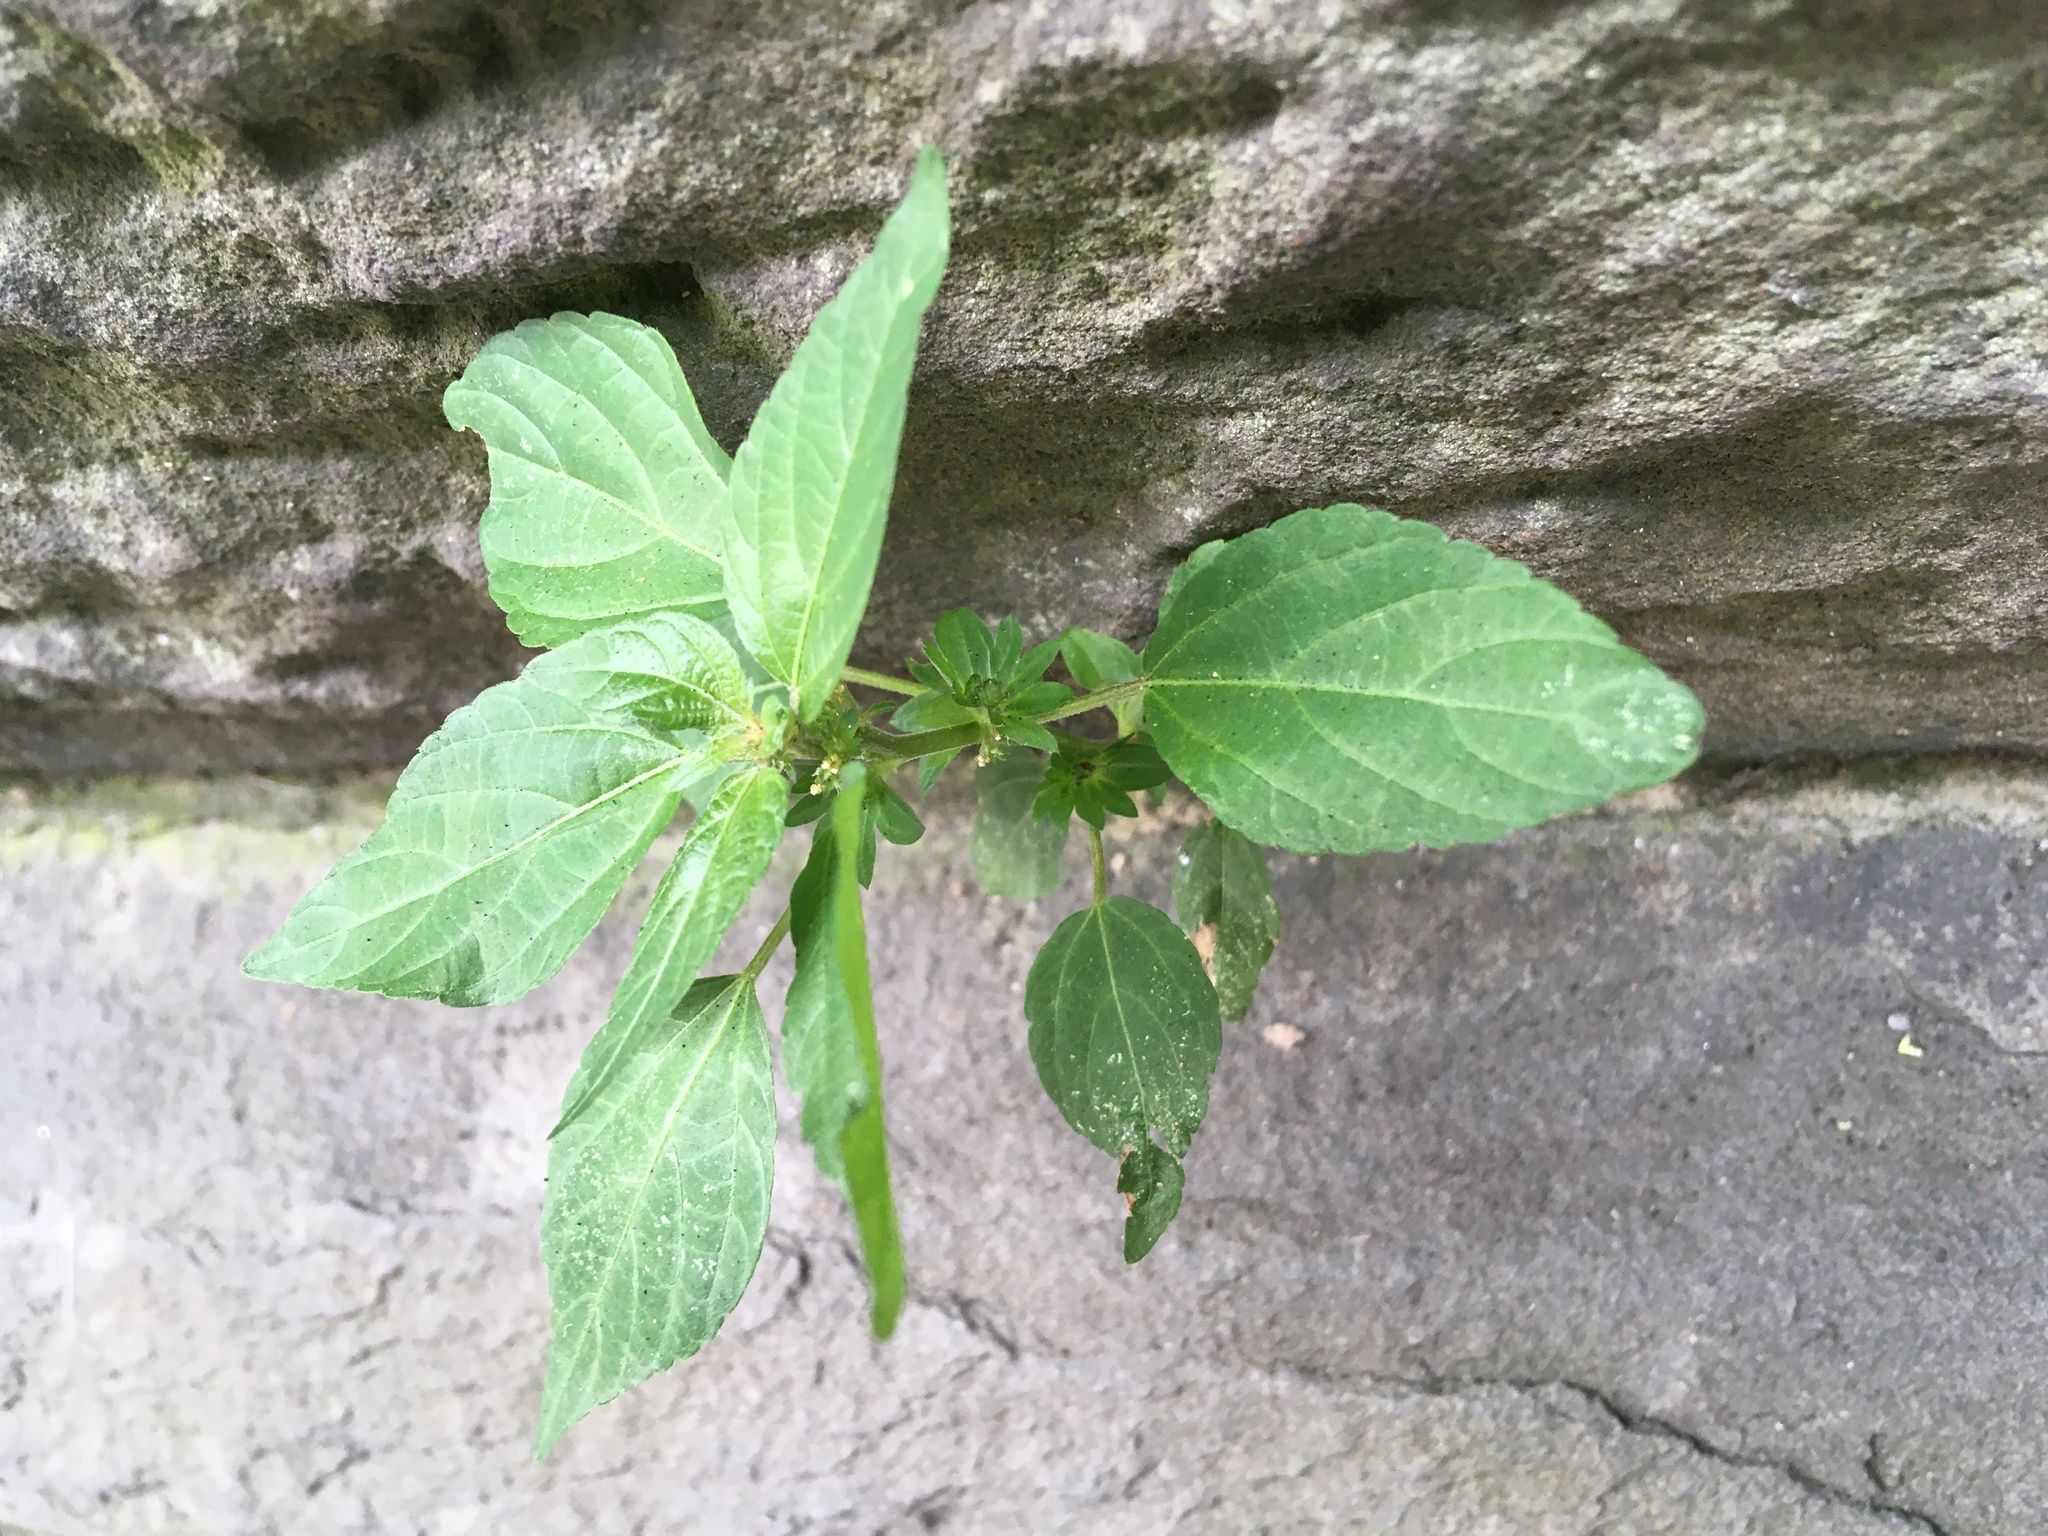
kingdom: Plantae
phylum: Tracheophyta
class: Magnoliopsida
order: Malpighiales
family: Euphorbiaceae
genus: Acalypha
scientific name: Acalypha rhomboidea
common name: Rhombic copperleaf
